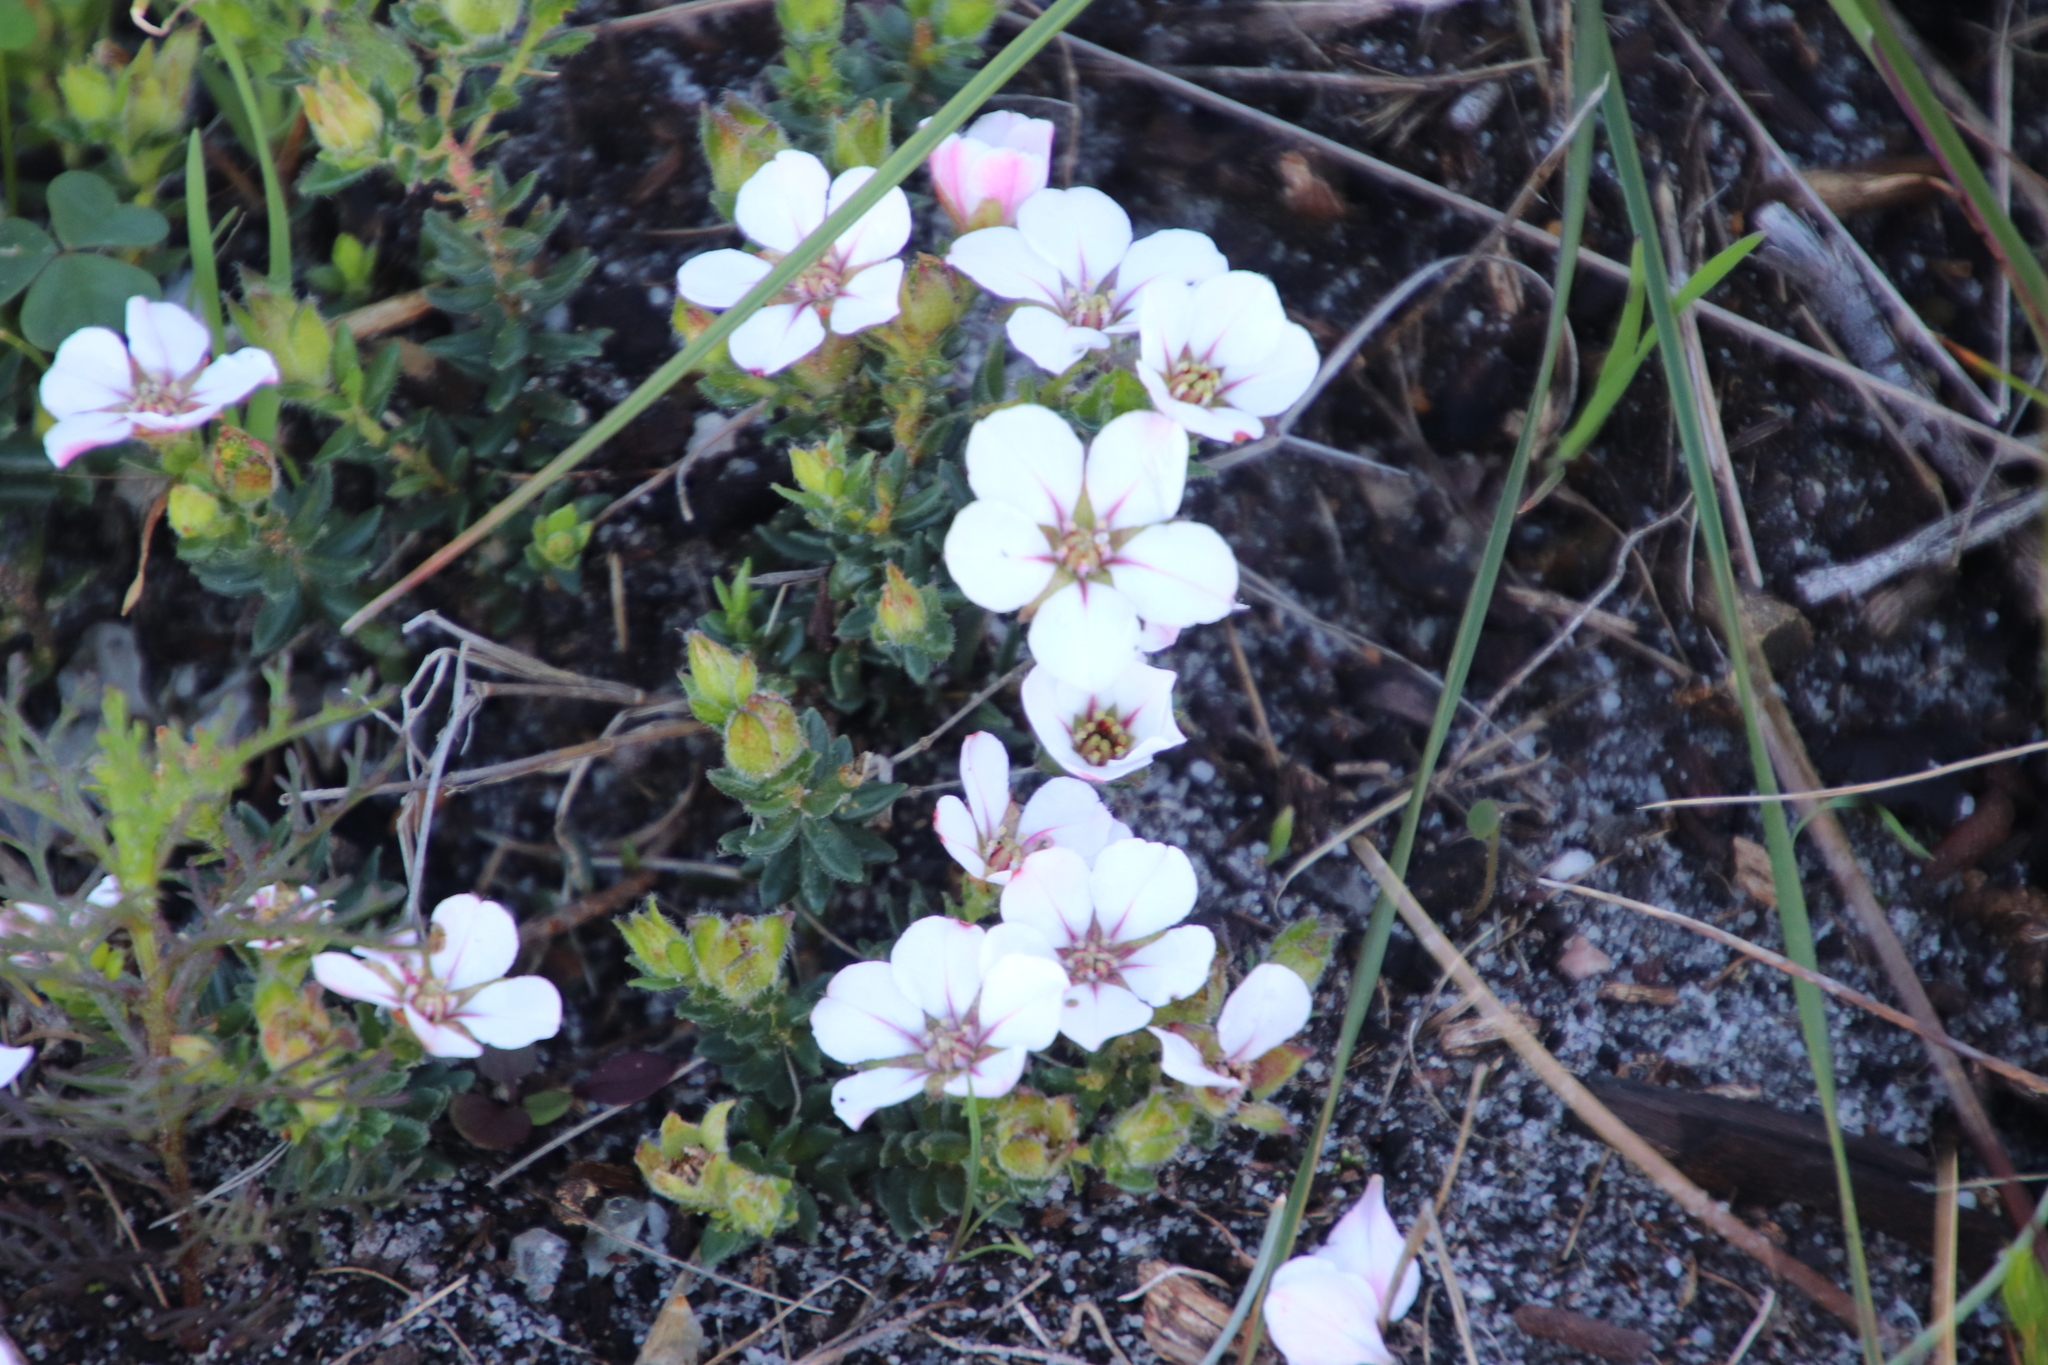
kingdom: Plantae
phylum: Tracheophyta
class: Magnoliopsida
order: Sapindales
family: Rutaceae
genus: Adenandra
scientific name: Adenandra villosa
